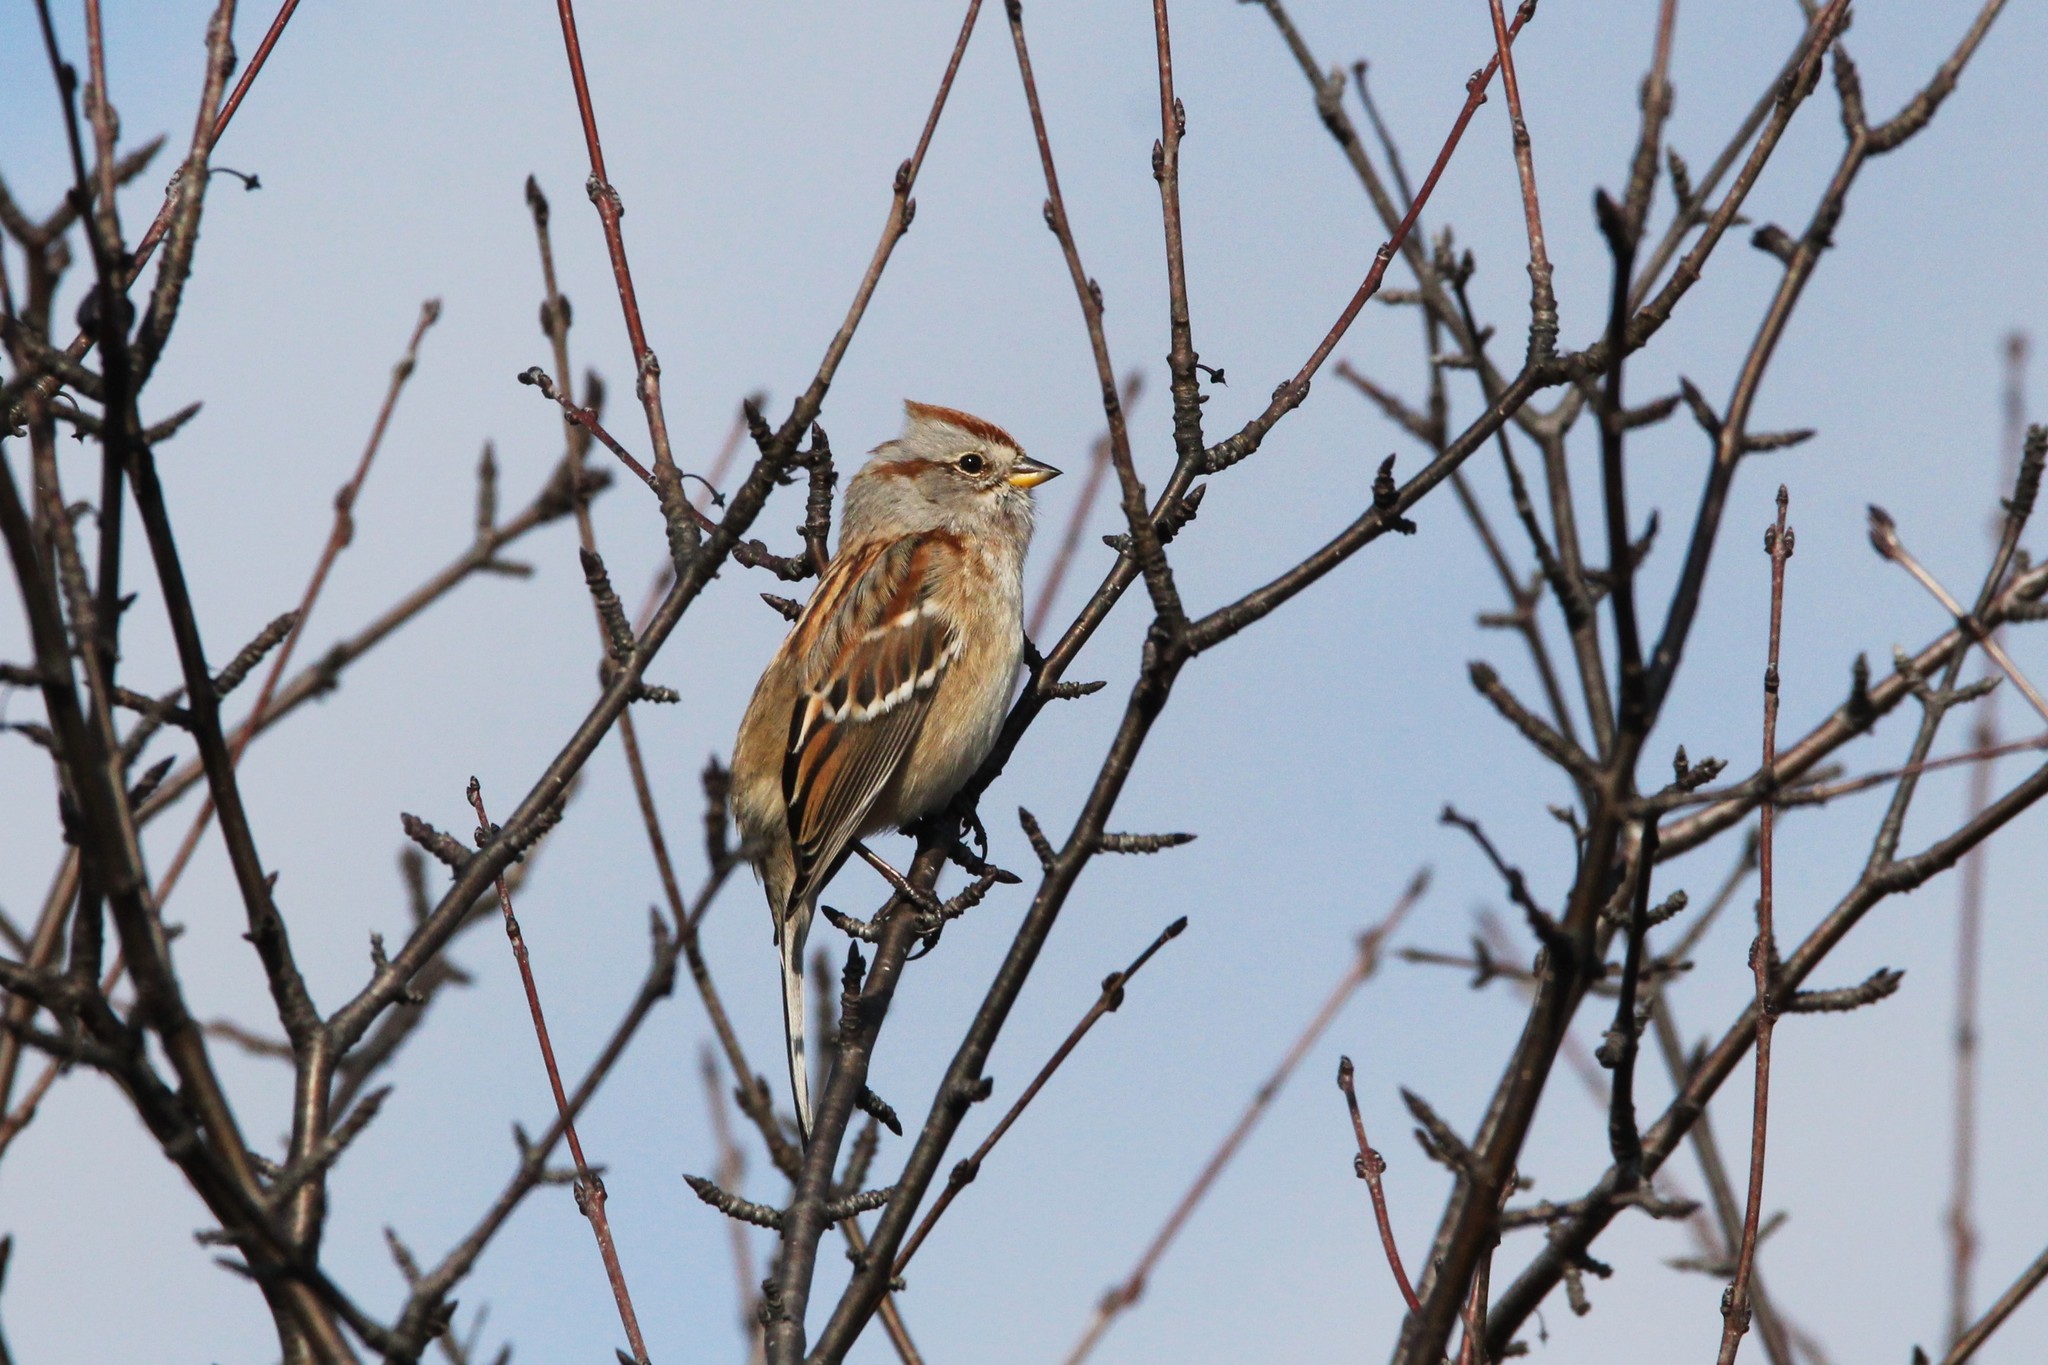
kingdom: Animalia
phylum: Chordata
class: Aves
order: Passeriformes
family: Passerellidae
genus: Spizelloides
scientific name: Spizelloides arborea
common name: American tree sparrow
